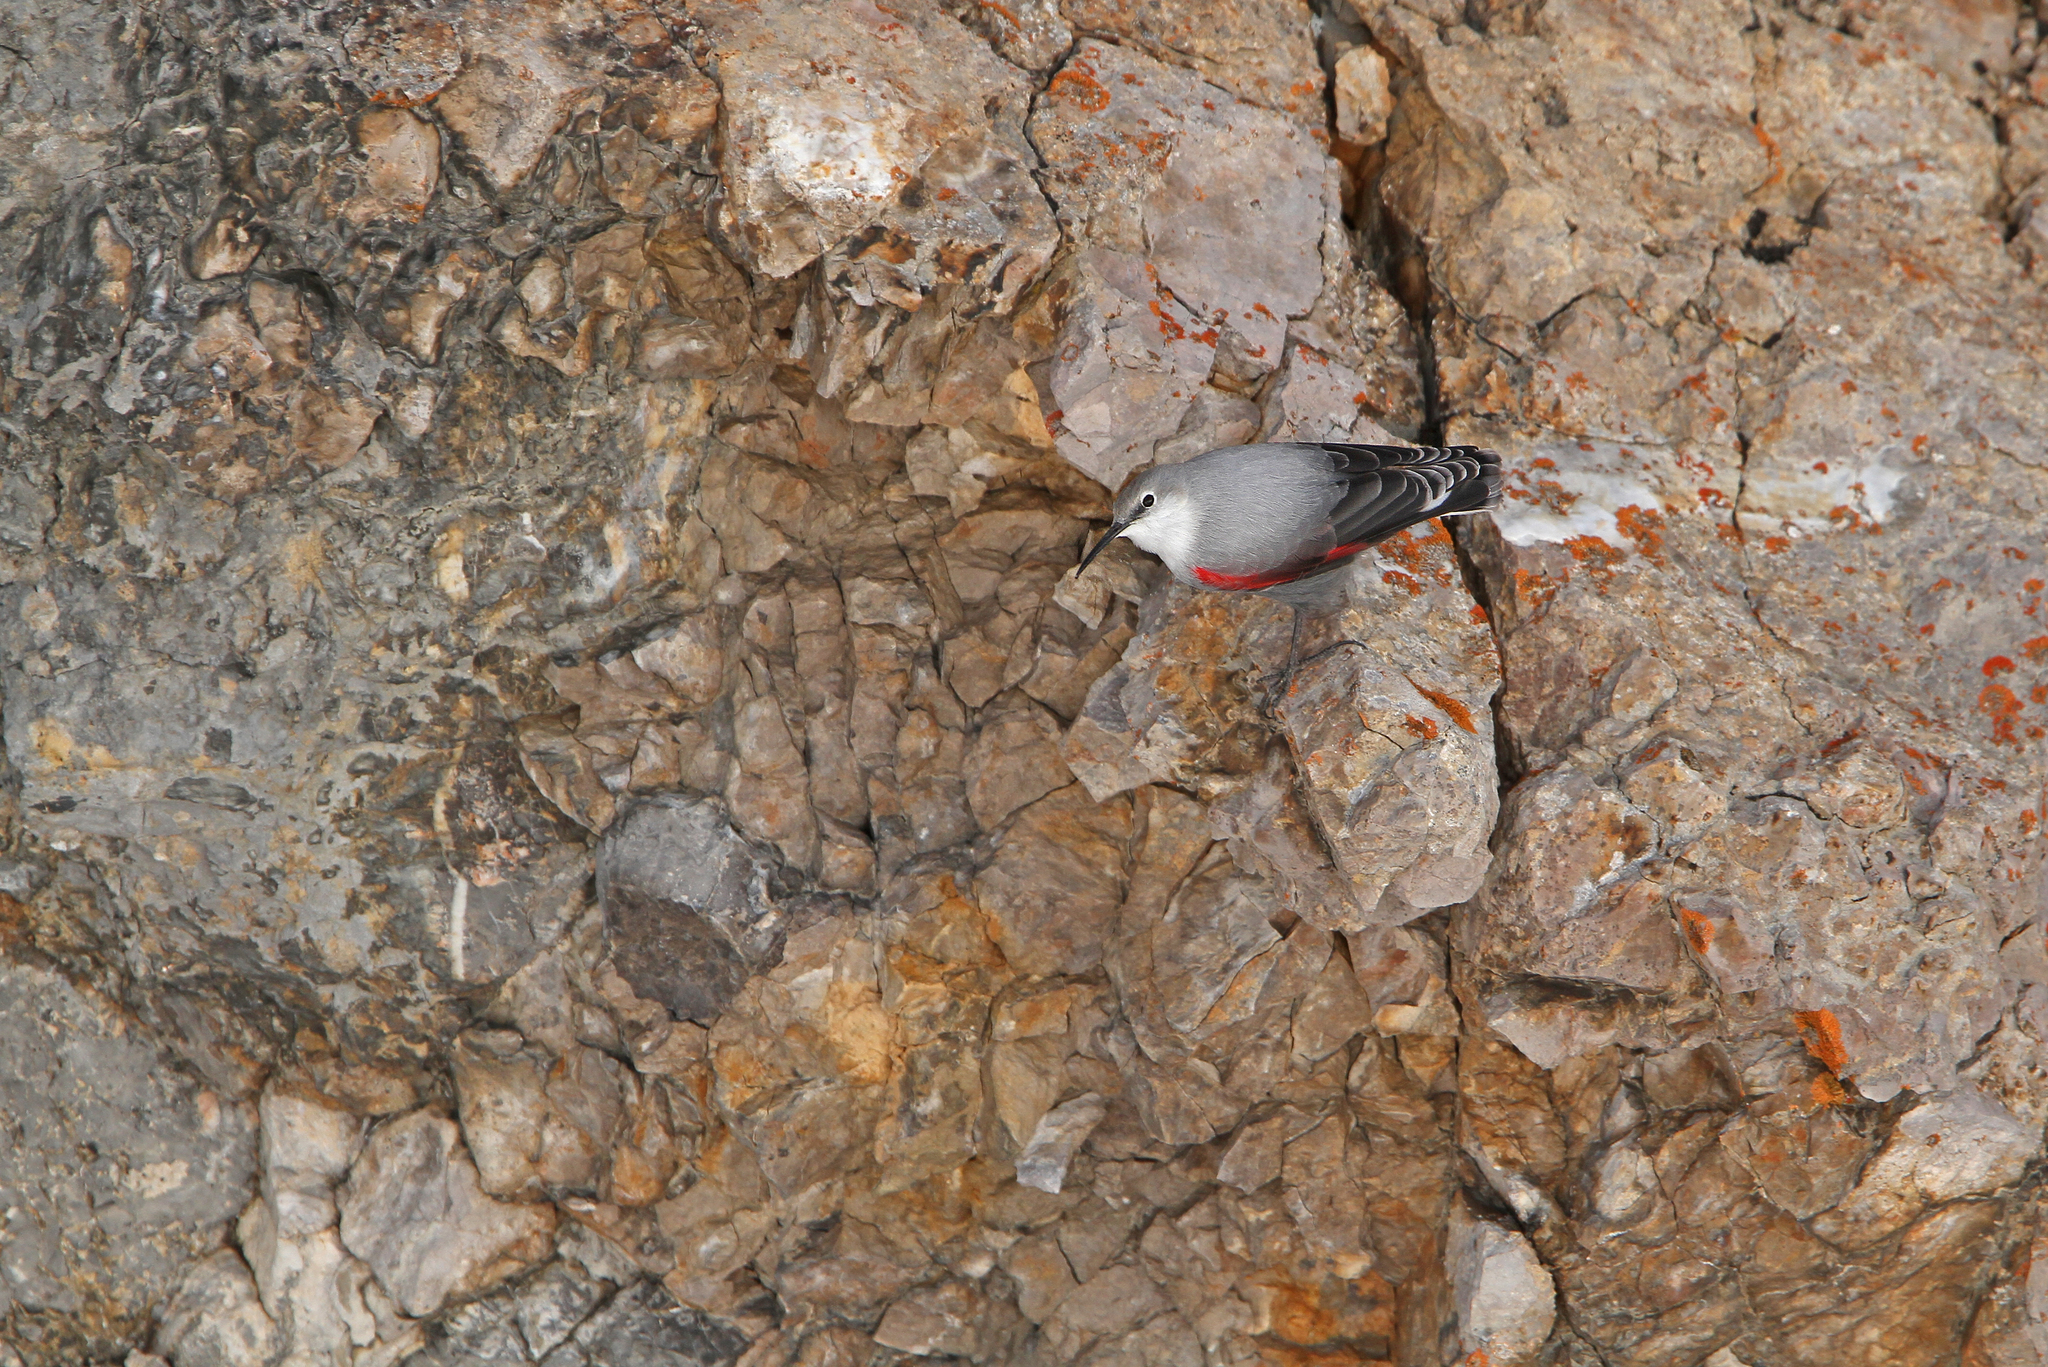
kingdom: Animalia
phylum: Chordata
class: Aves
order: Passeriformes
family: Tichodromidae
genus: Tichodroma
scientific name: Tichodroma muraria
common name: Wallcreeper
